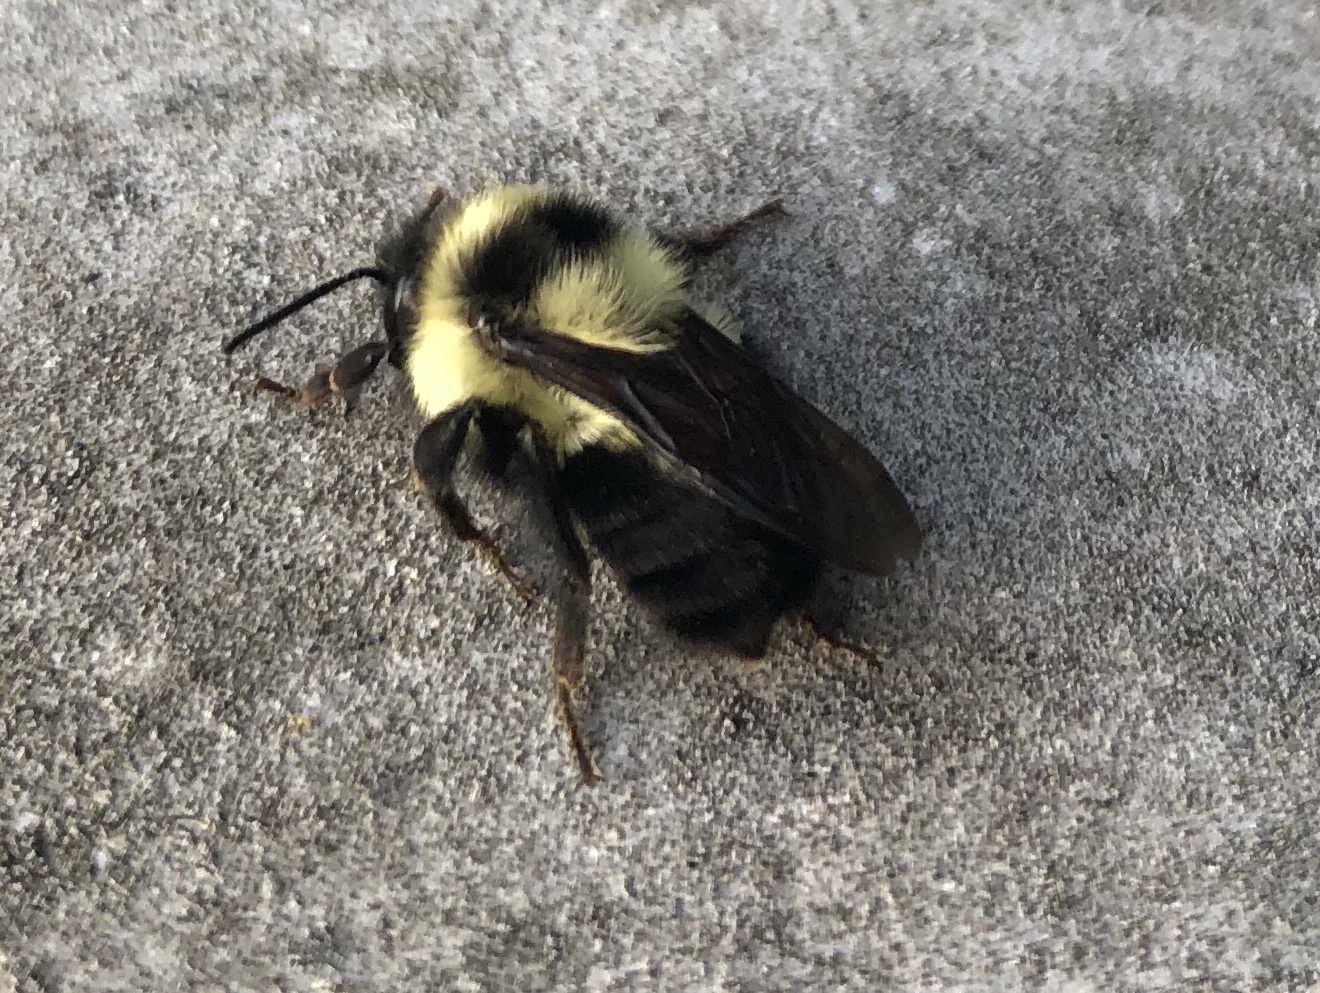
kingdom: Animalia
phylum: Arthropoda
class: Insecta
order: Hymenoptera
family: Apidae
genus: Bombus
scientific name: Bombus wilmattae
